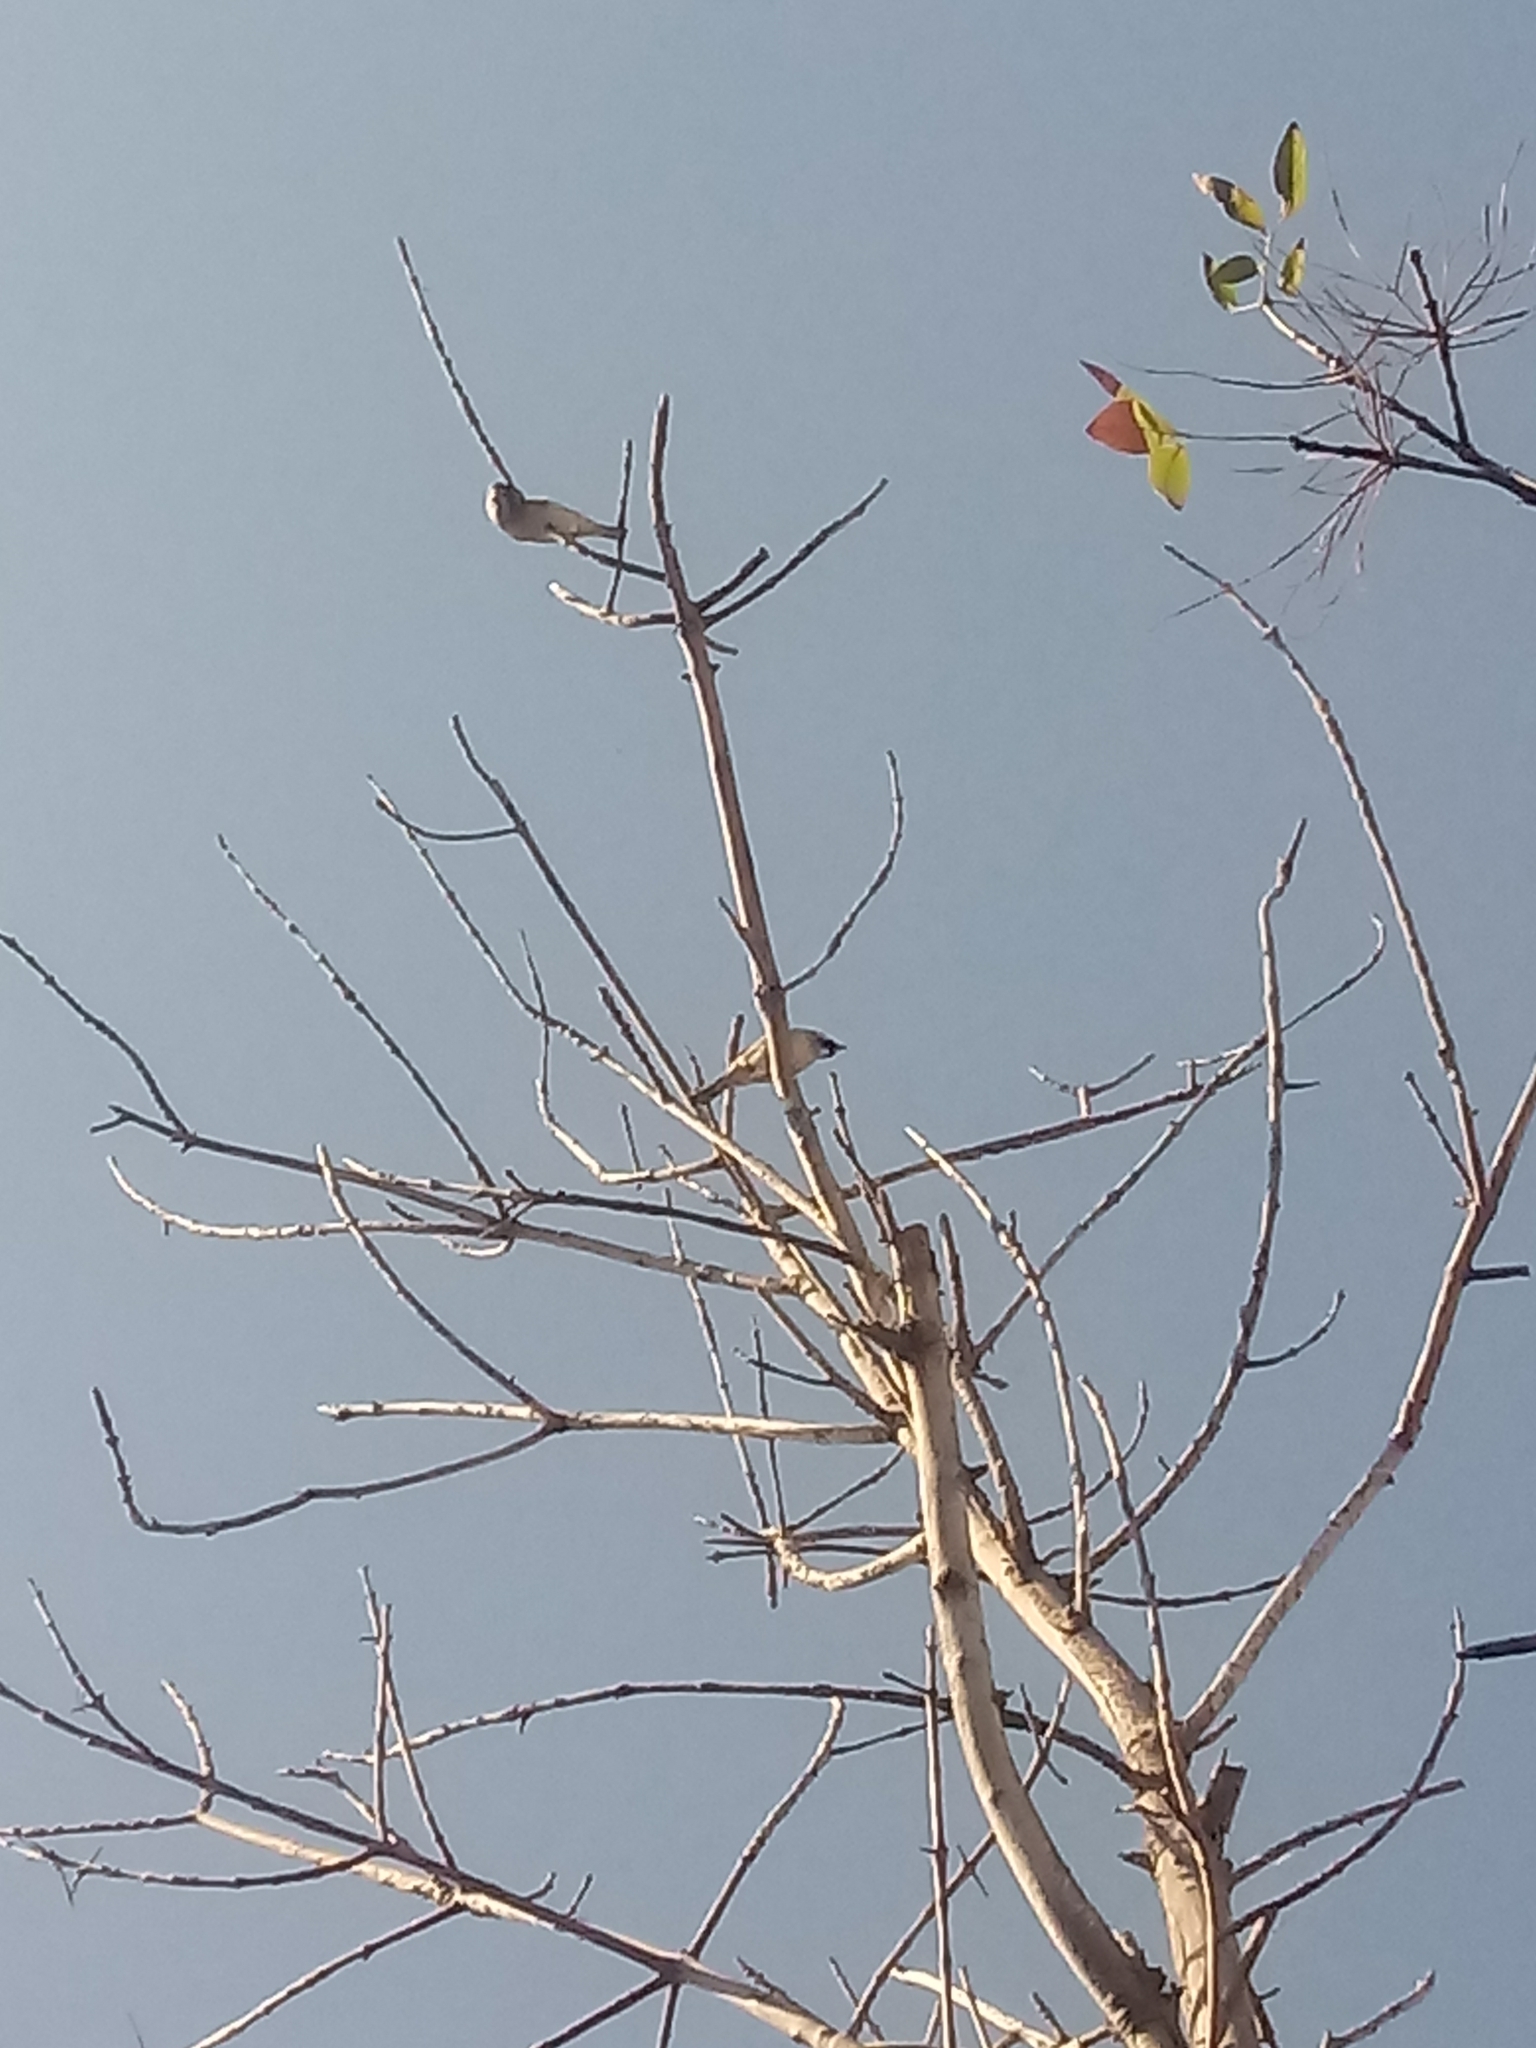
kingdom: Animalia
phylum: Chordata
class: Aves
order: Passeriformes
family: Passeridae
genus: Passer
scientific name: Passer domesticus
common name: House sparrow
